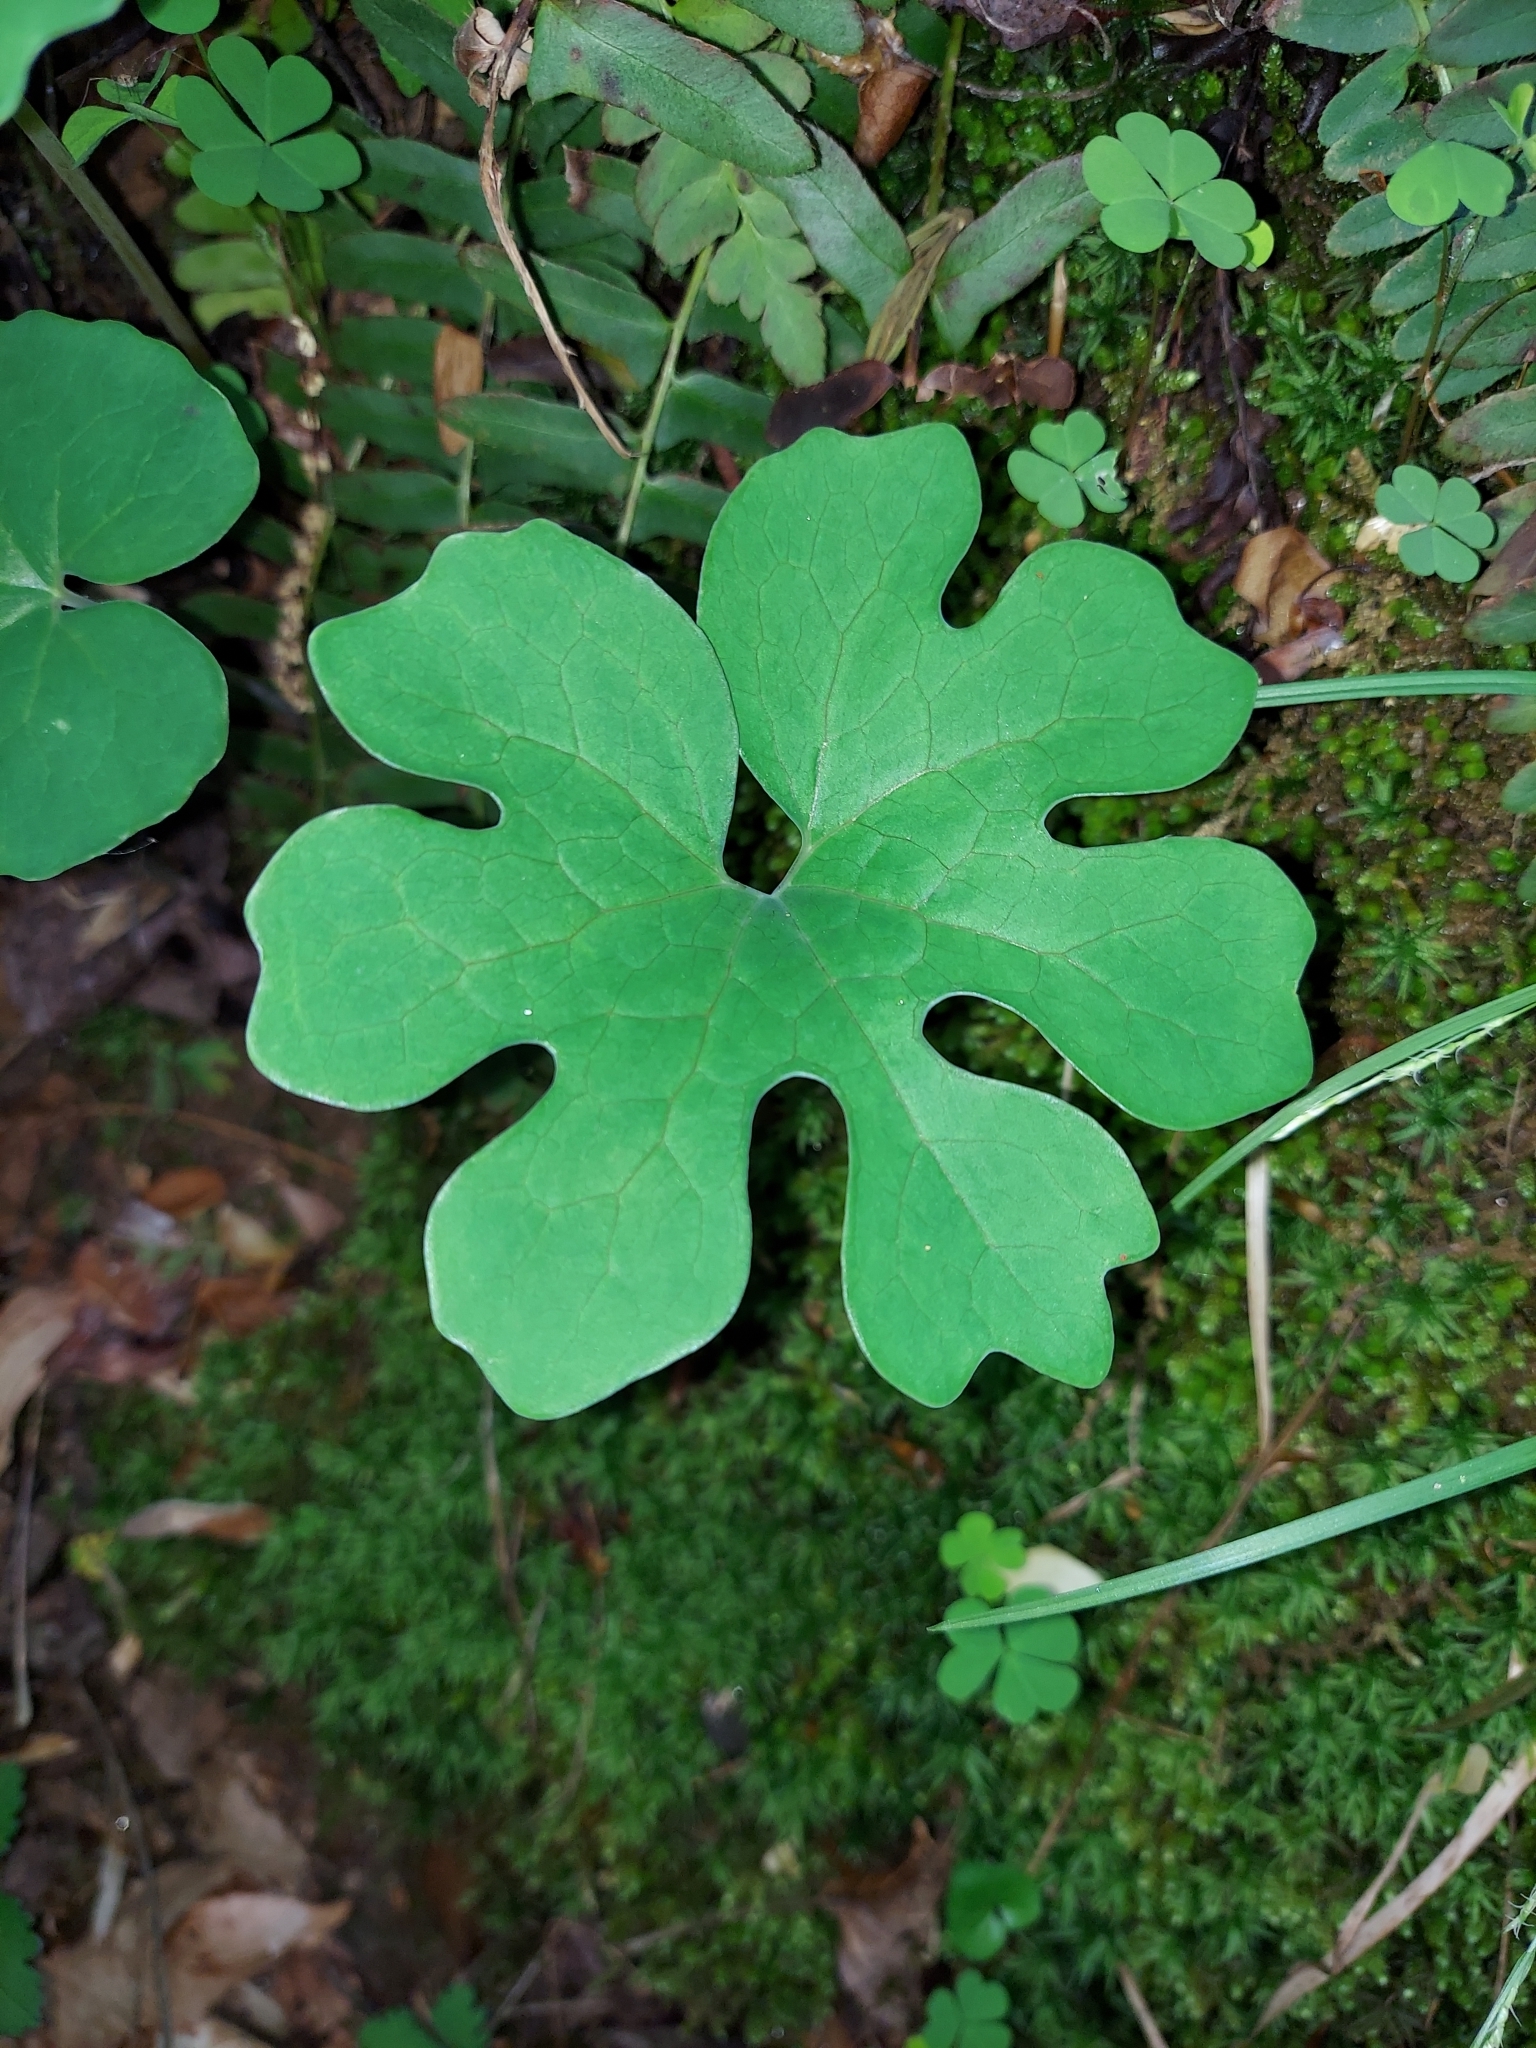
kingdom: Plantae
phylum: Tracheophyta
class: Magnoliopsida
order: Ranunculales
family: Papaveraceae
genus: Sanguinaria
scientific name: Sanguinaria canadensis
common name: Bloodroot
